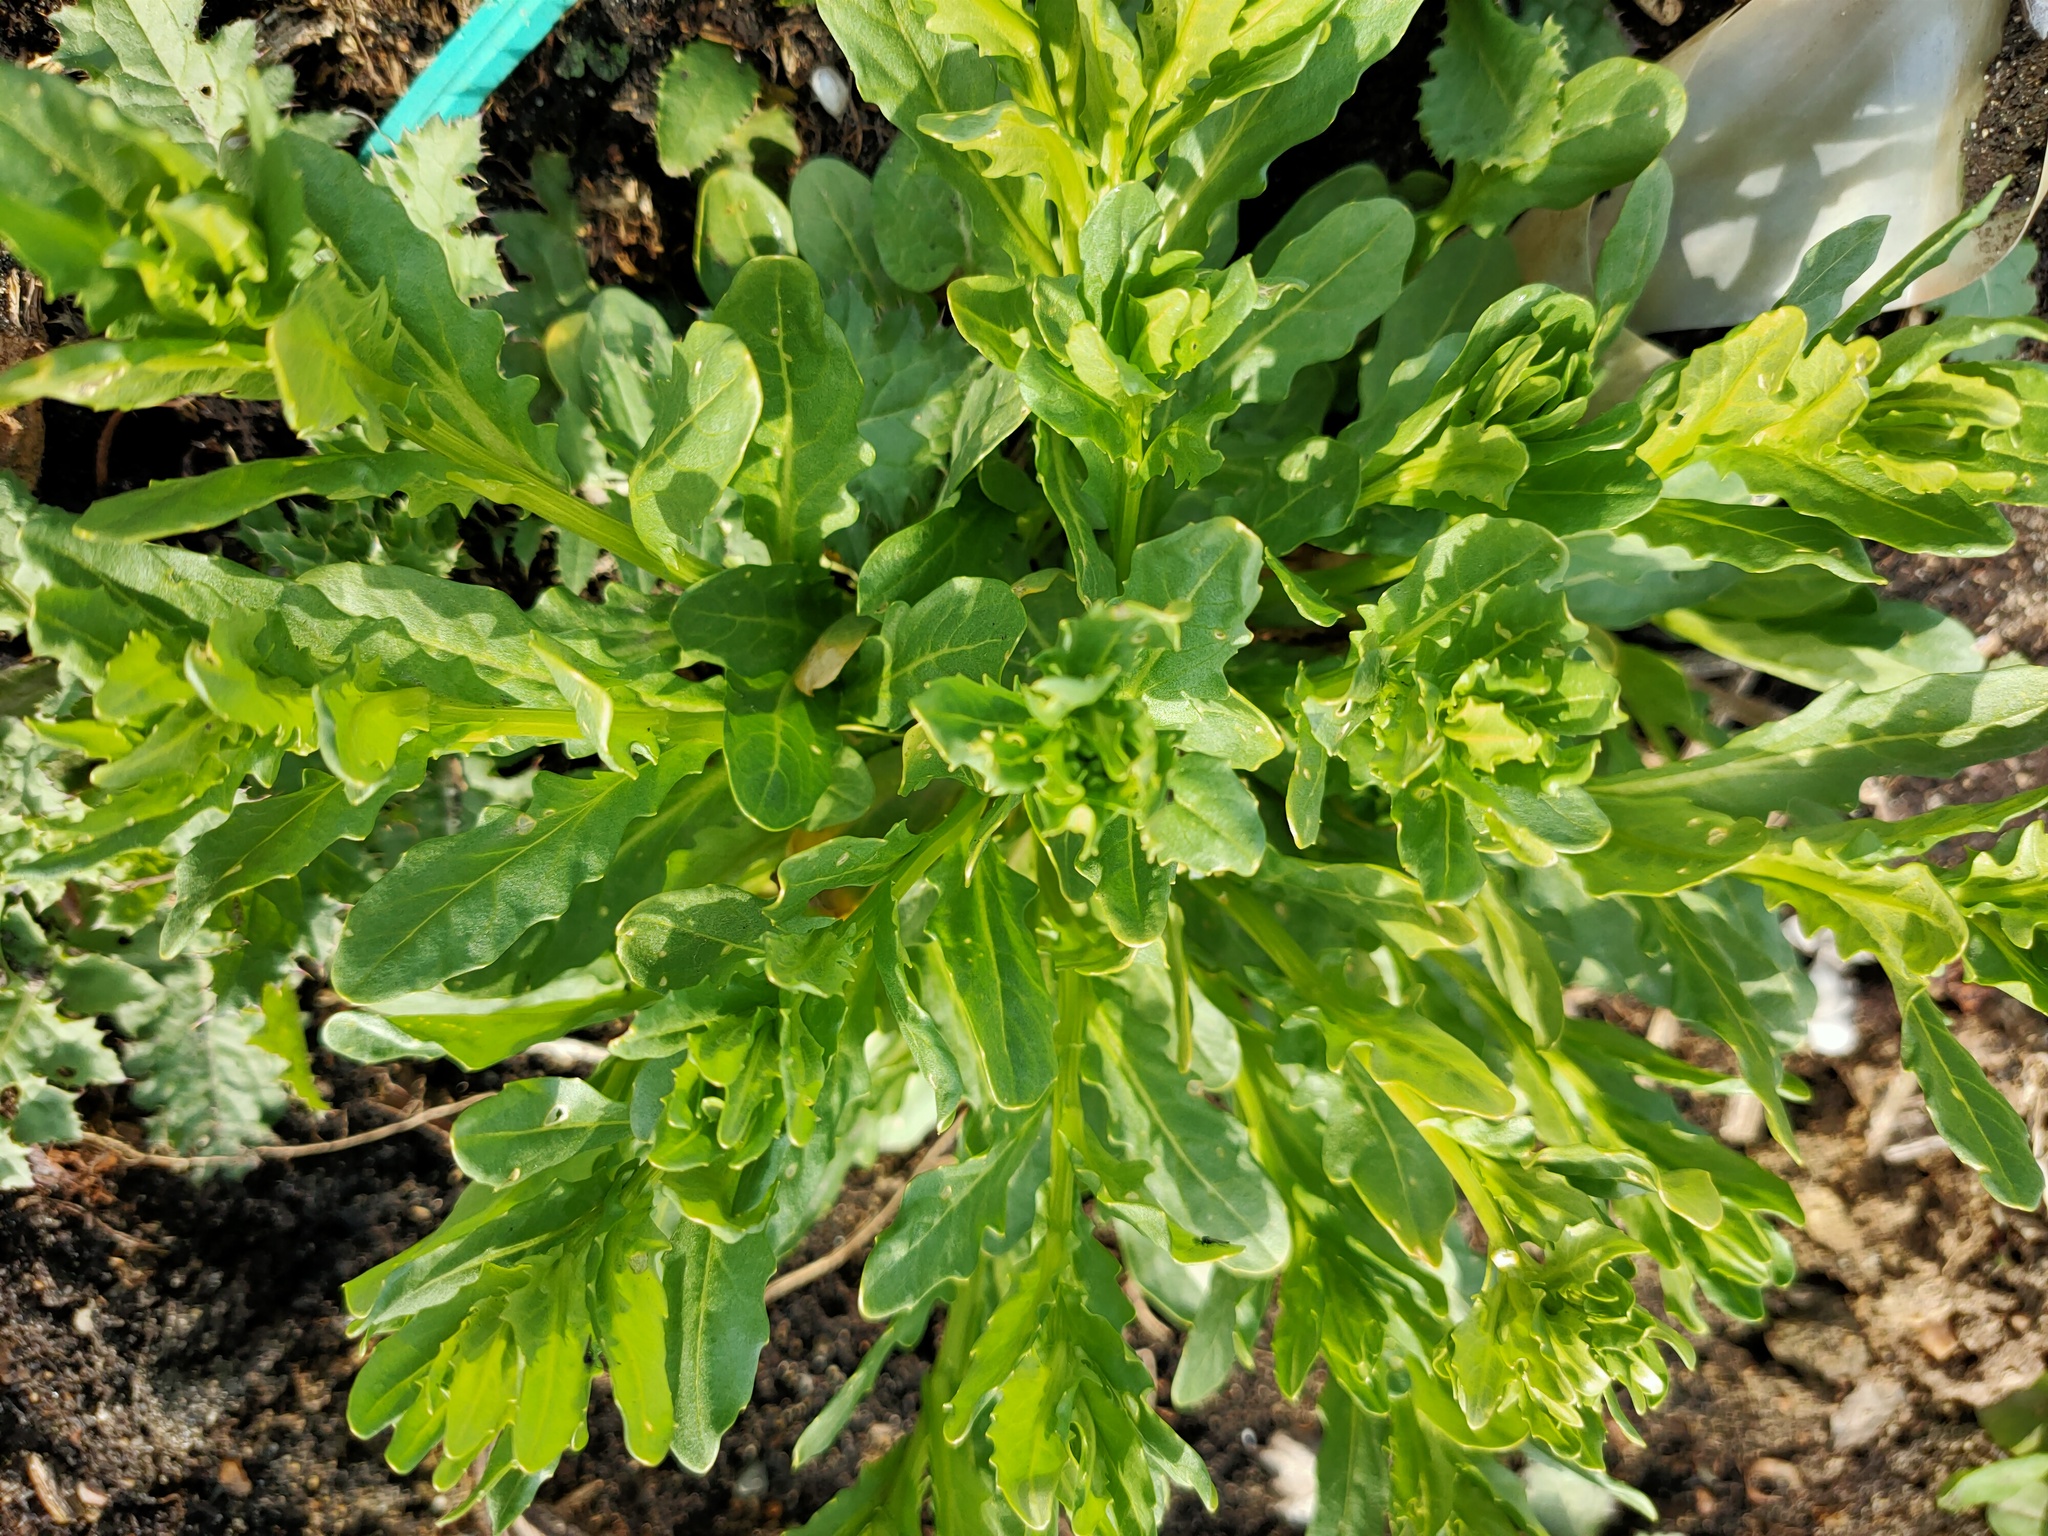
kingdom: Plantae
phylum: Tracheophyta
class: Magnoliopsida
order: Brassicales
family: Brassicaceae
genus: Thlaspi
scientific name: Thlaspi arvense
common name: Field pennycress
